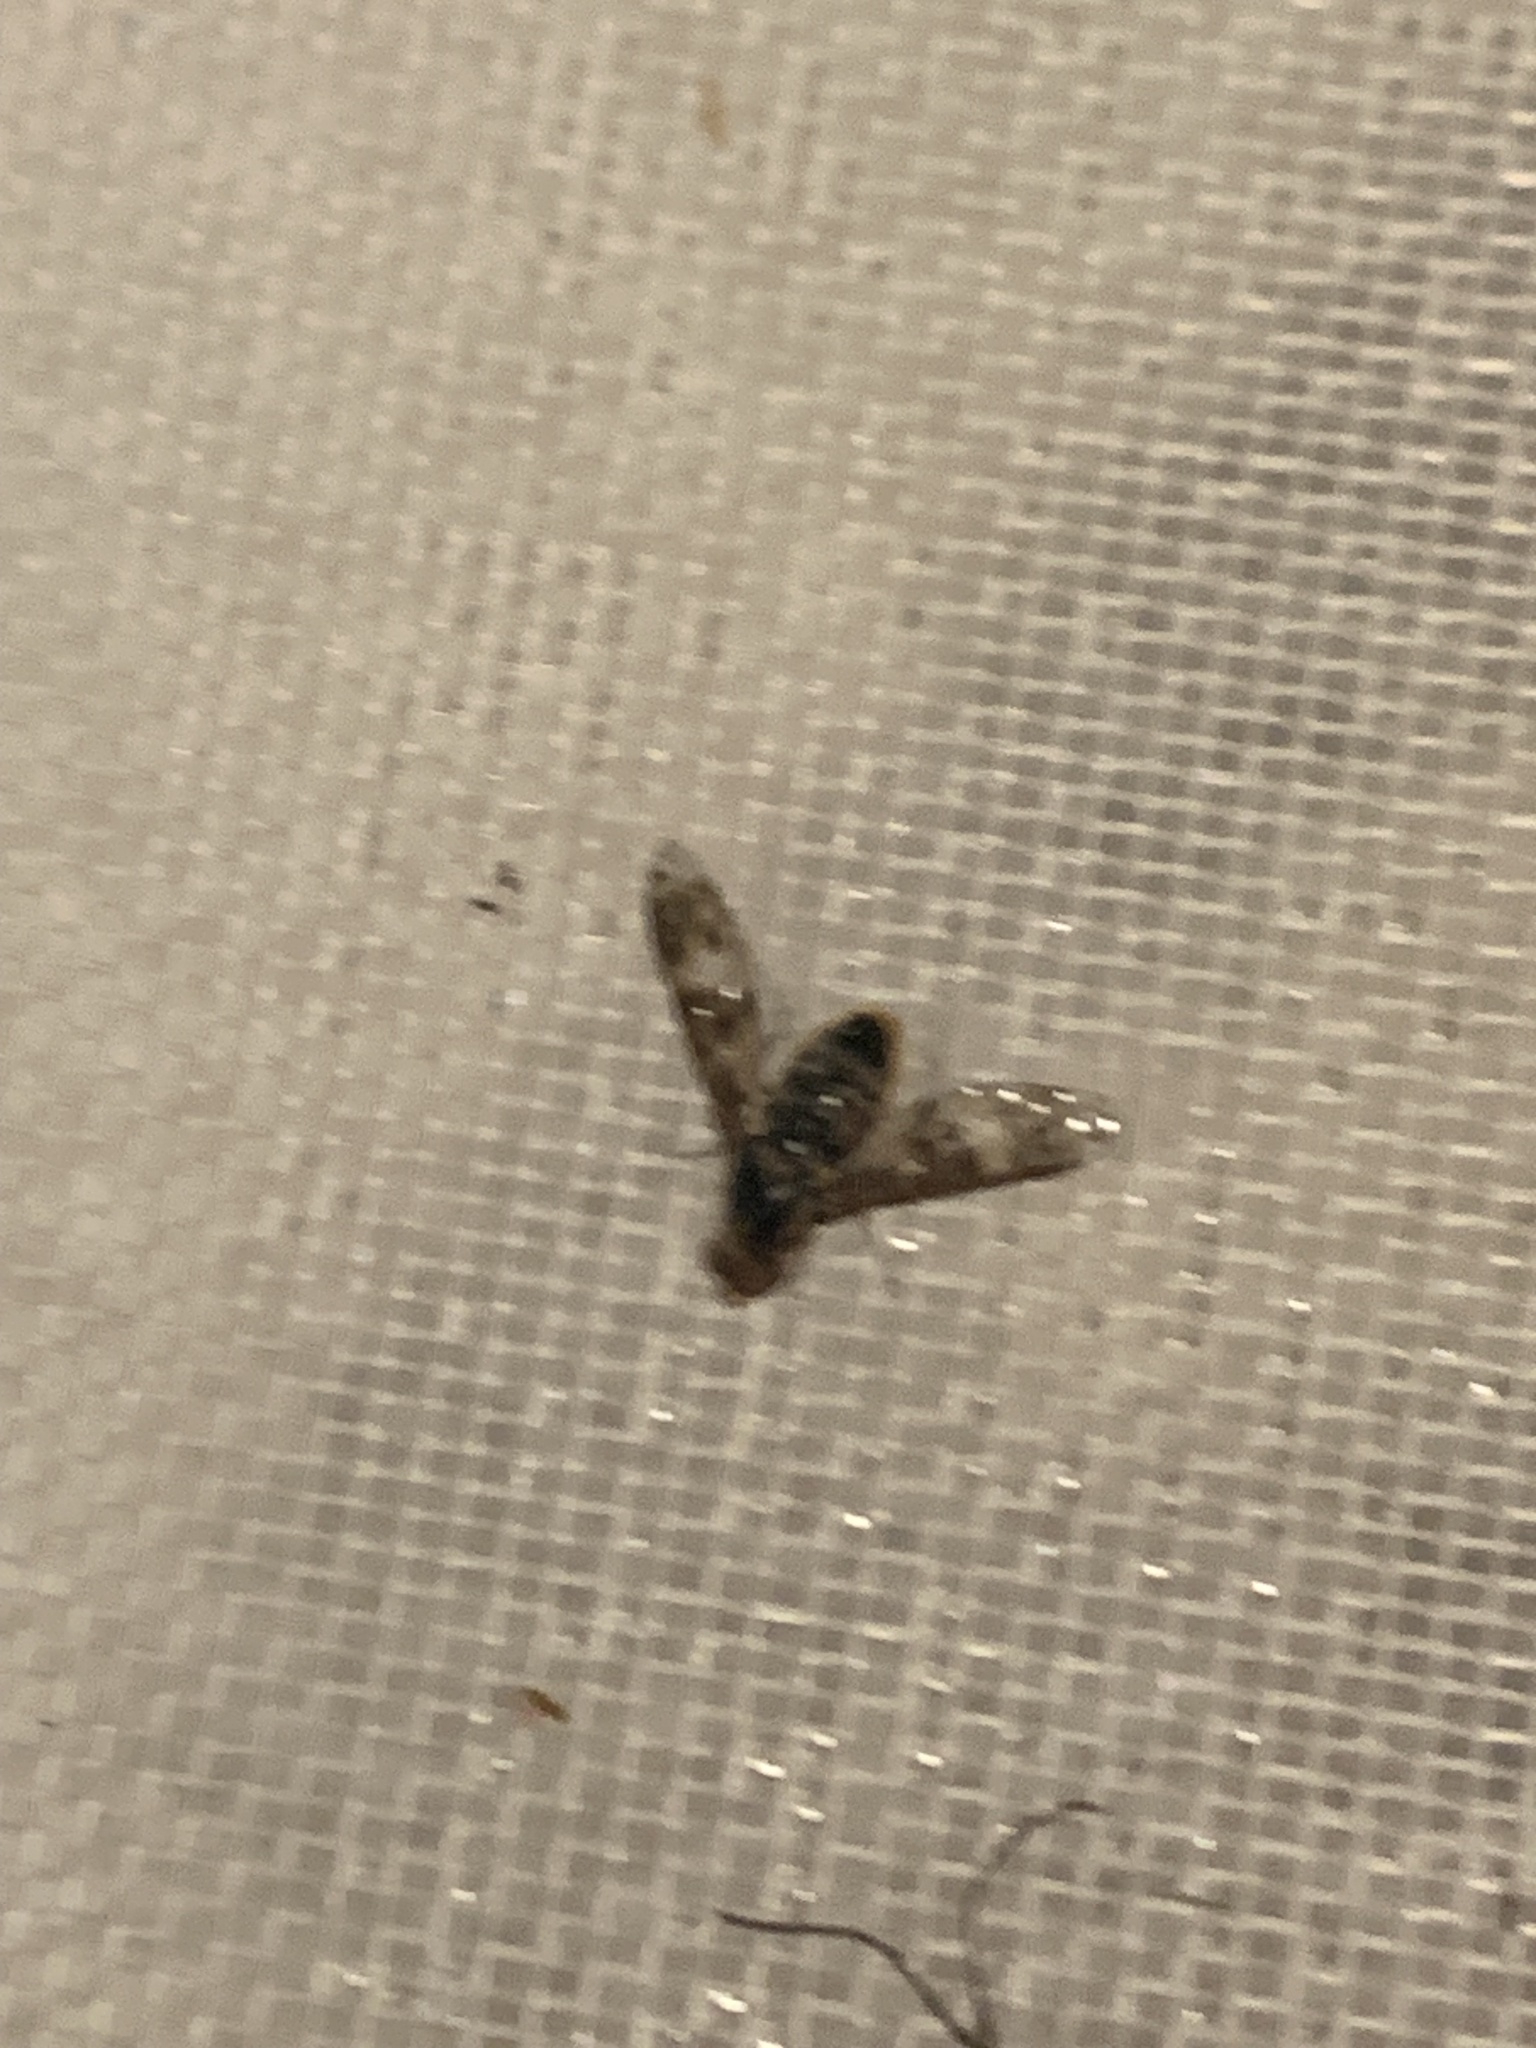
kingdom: Animalia
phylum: Arthropoda
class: Insecta
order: Diptera
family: Bombyliidae
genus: Dipalta
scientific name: Dipalta serpentina
